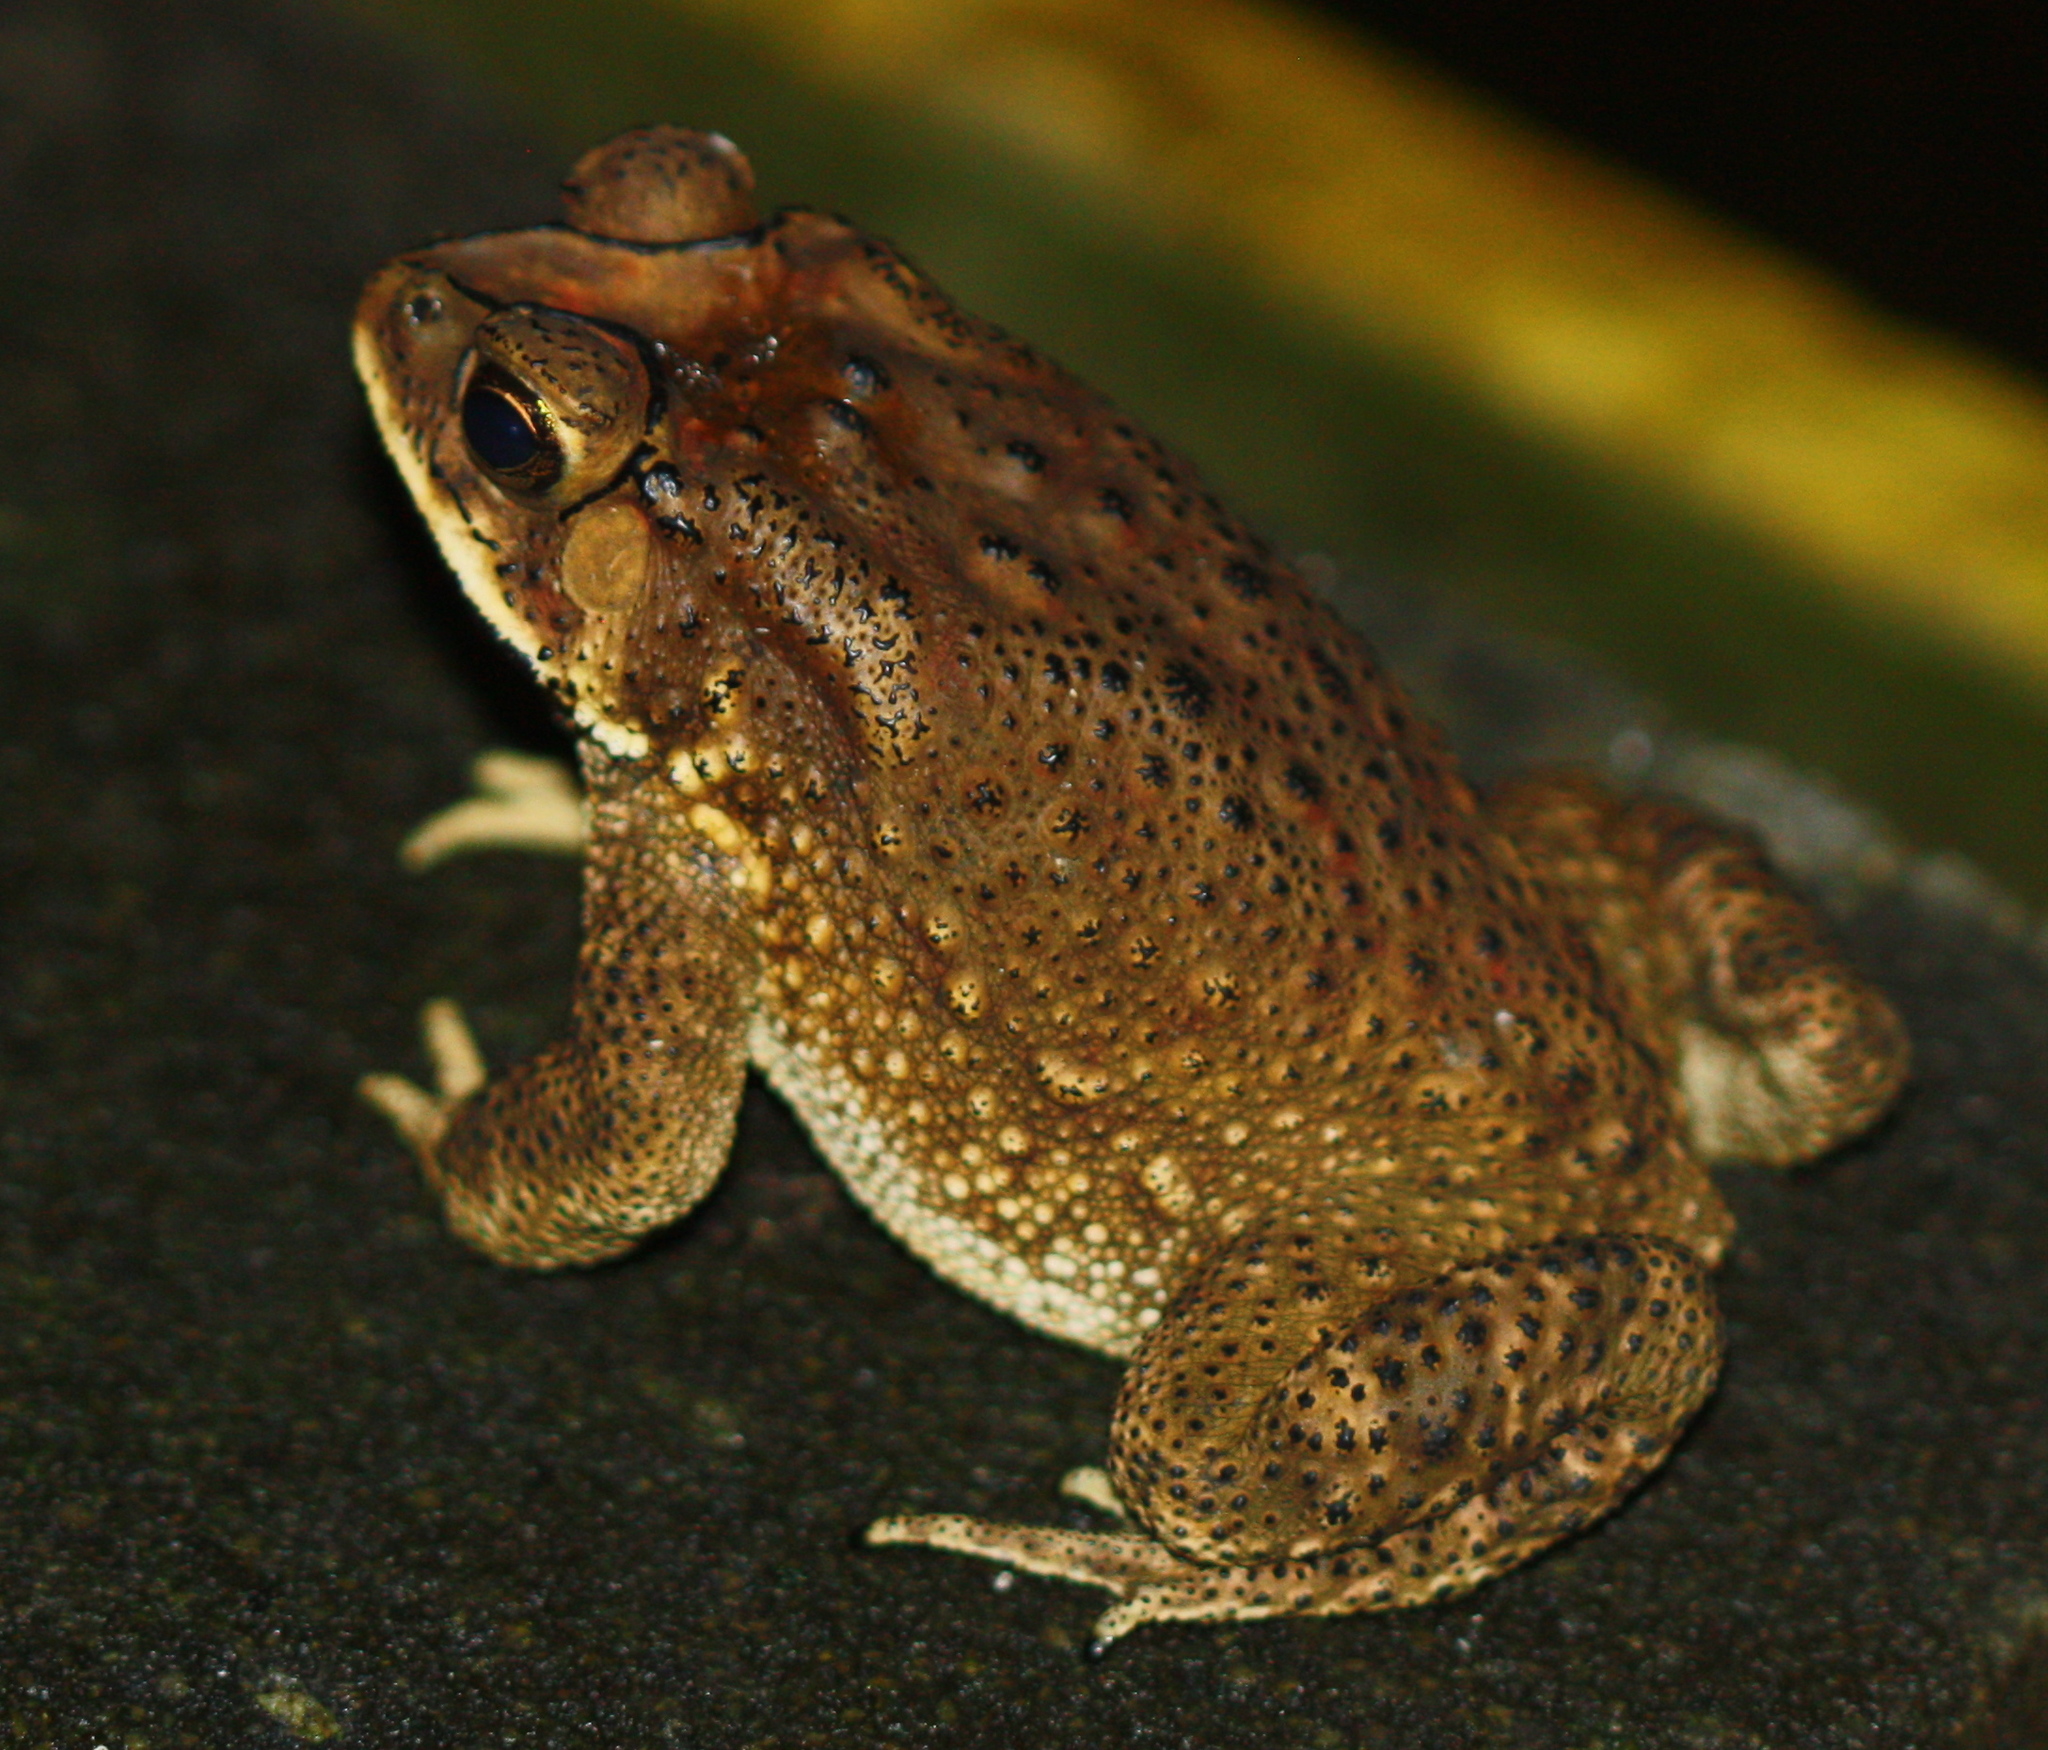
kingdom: Animalia
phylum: Chordata
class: Amphibia
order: Anura
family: Bufonidae
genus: Duttaphrynus
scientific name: Duttaphrynus melanostictus
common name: Common sunda toad
